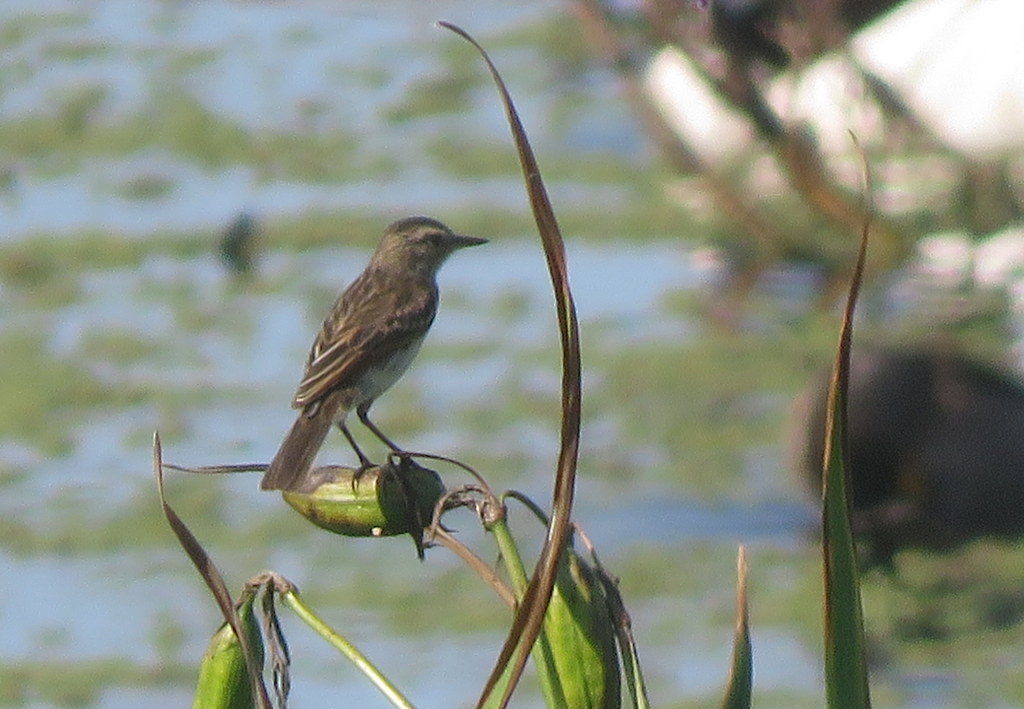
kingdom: Animalia
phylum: Chordata
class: Aves
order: Passeriformes
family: Tyrannidae
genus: Hymenops
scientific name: Hymenops perspicillatus
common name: Spectacled tyrant
